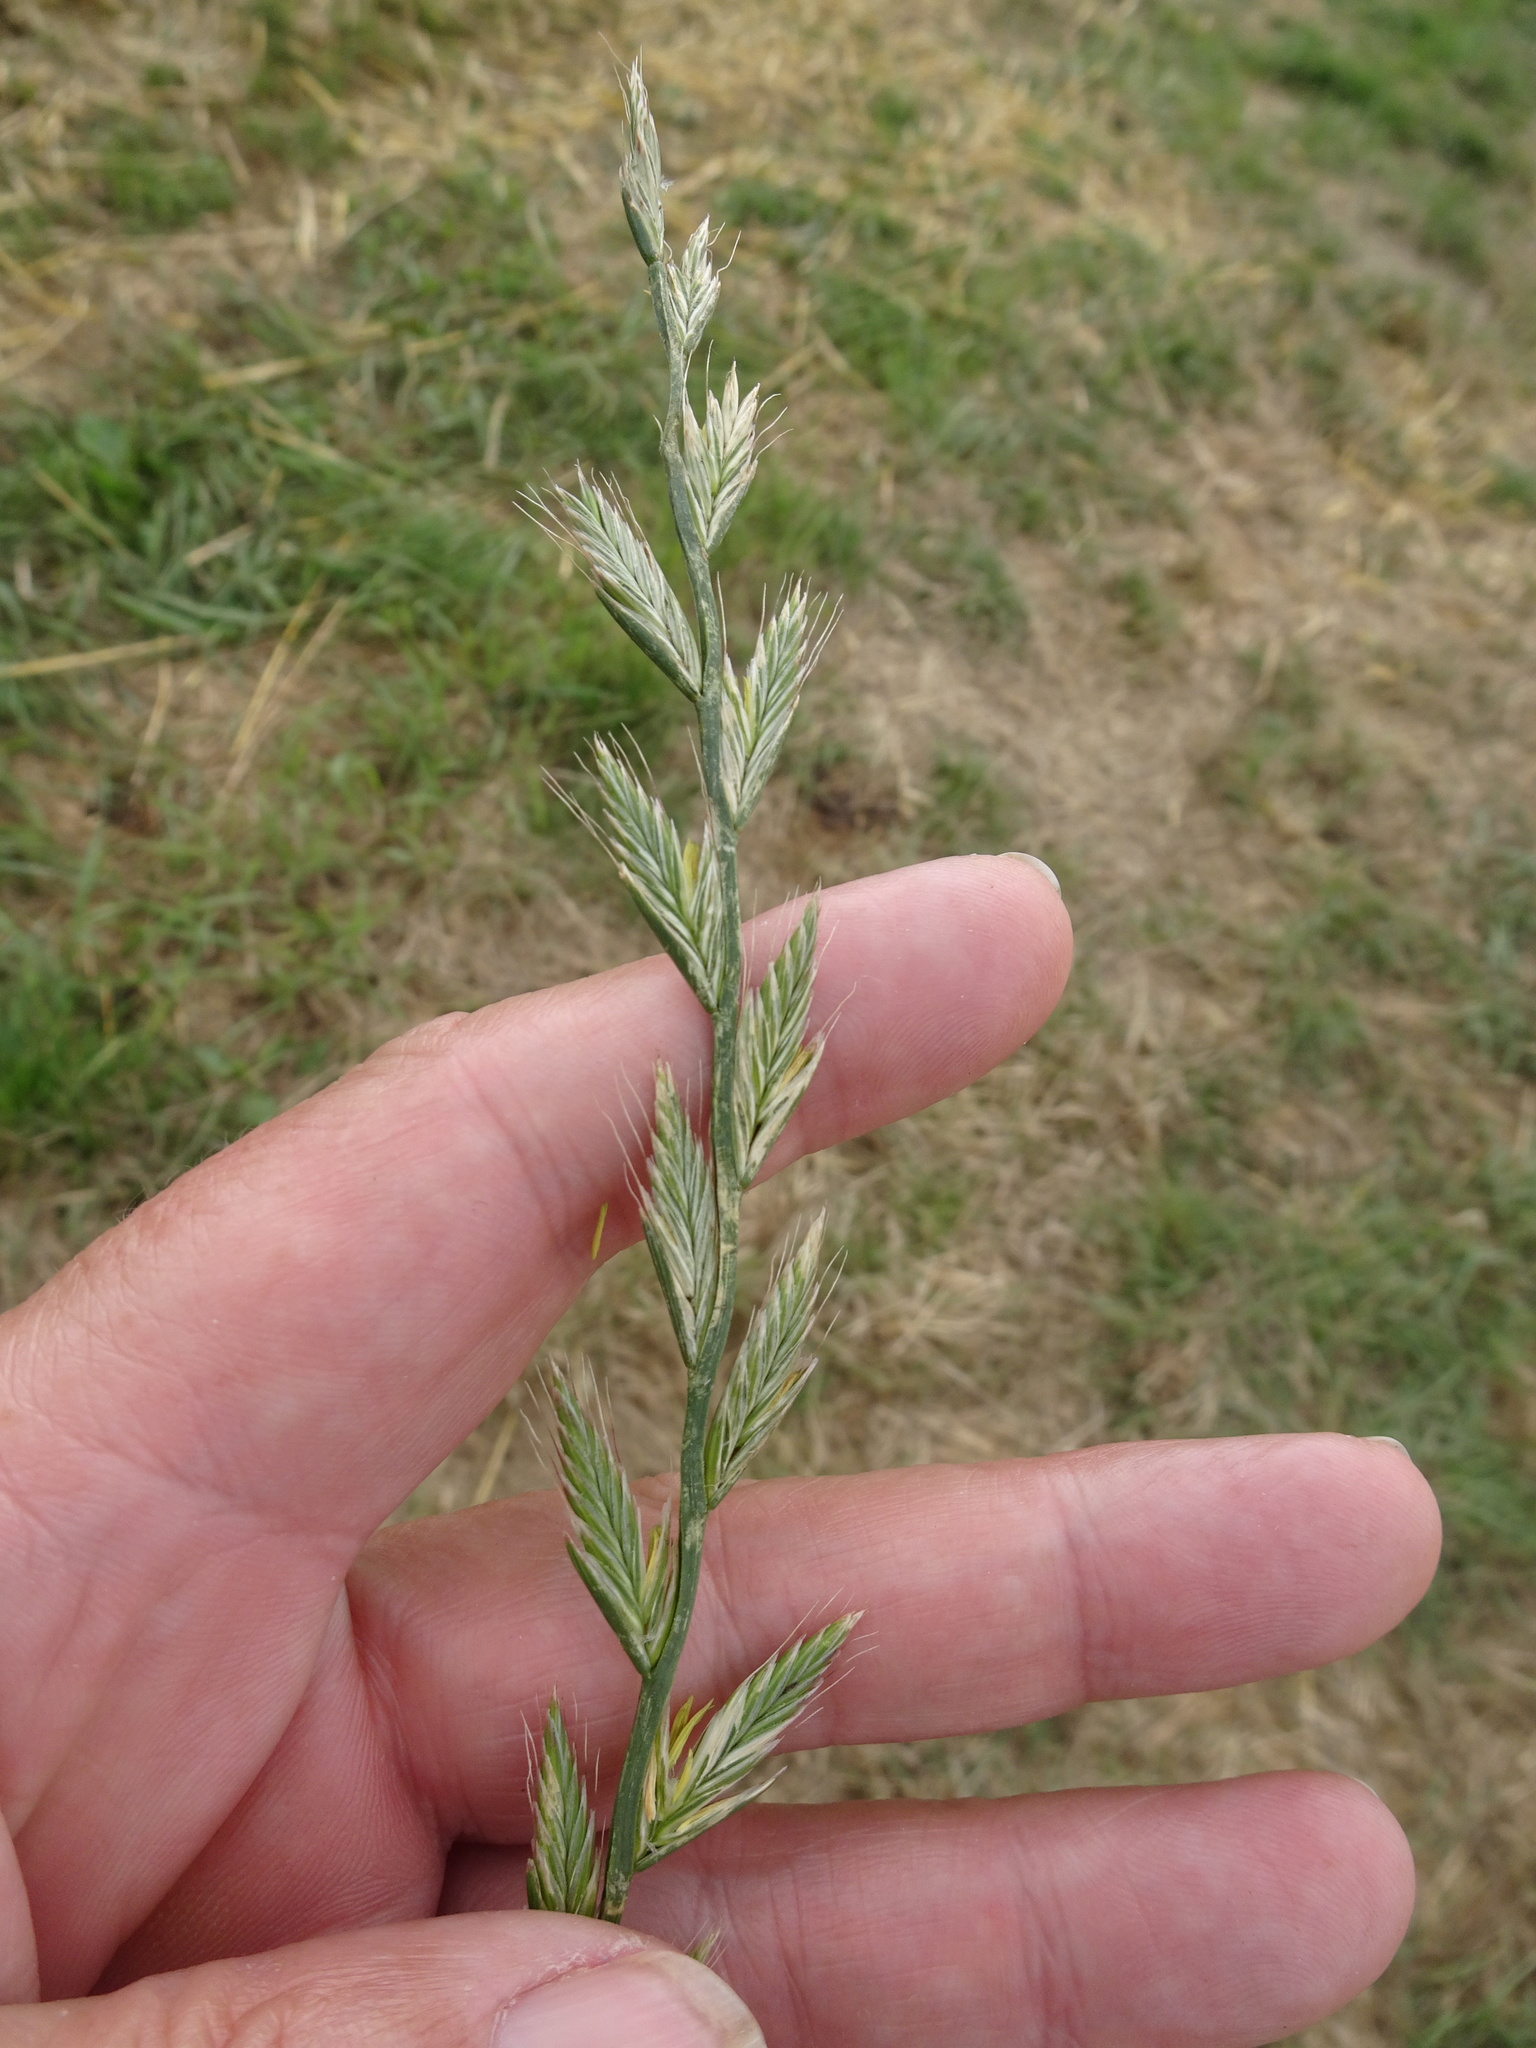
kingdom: Plantae
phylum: Tracheophyta
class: Liliopsida
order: Poales
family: Poaceae
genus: Lolium
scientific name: Lolium multiflorum
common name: Annual ryegrass
